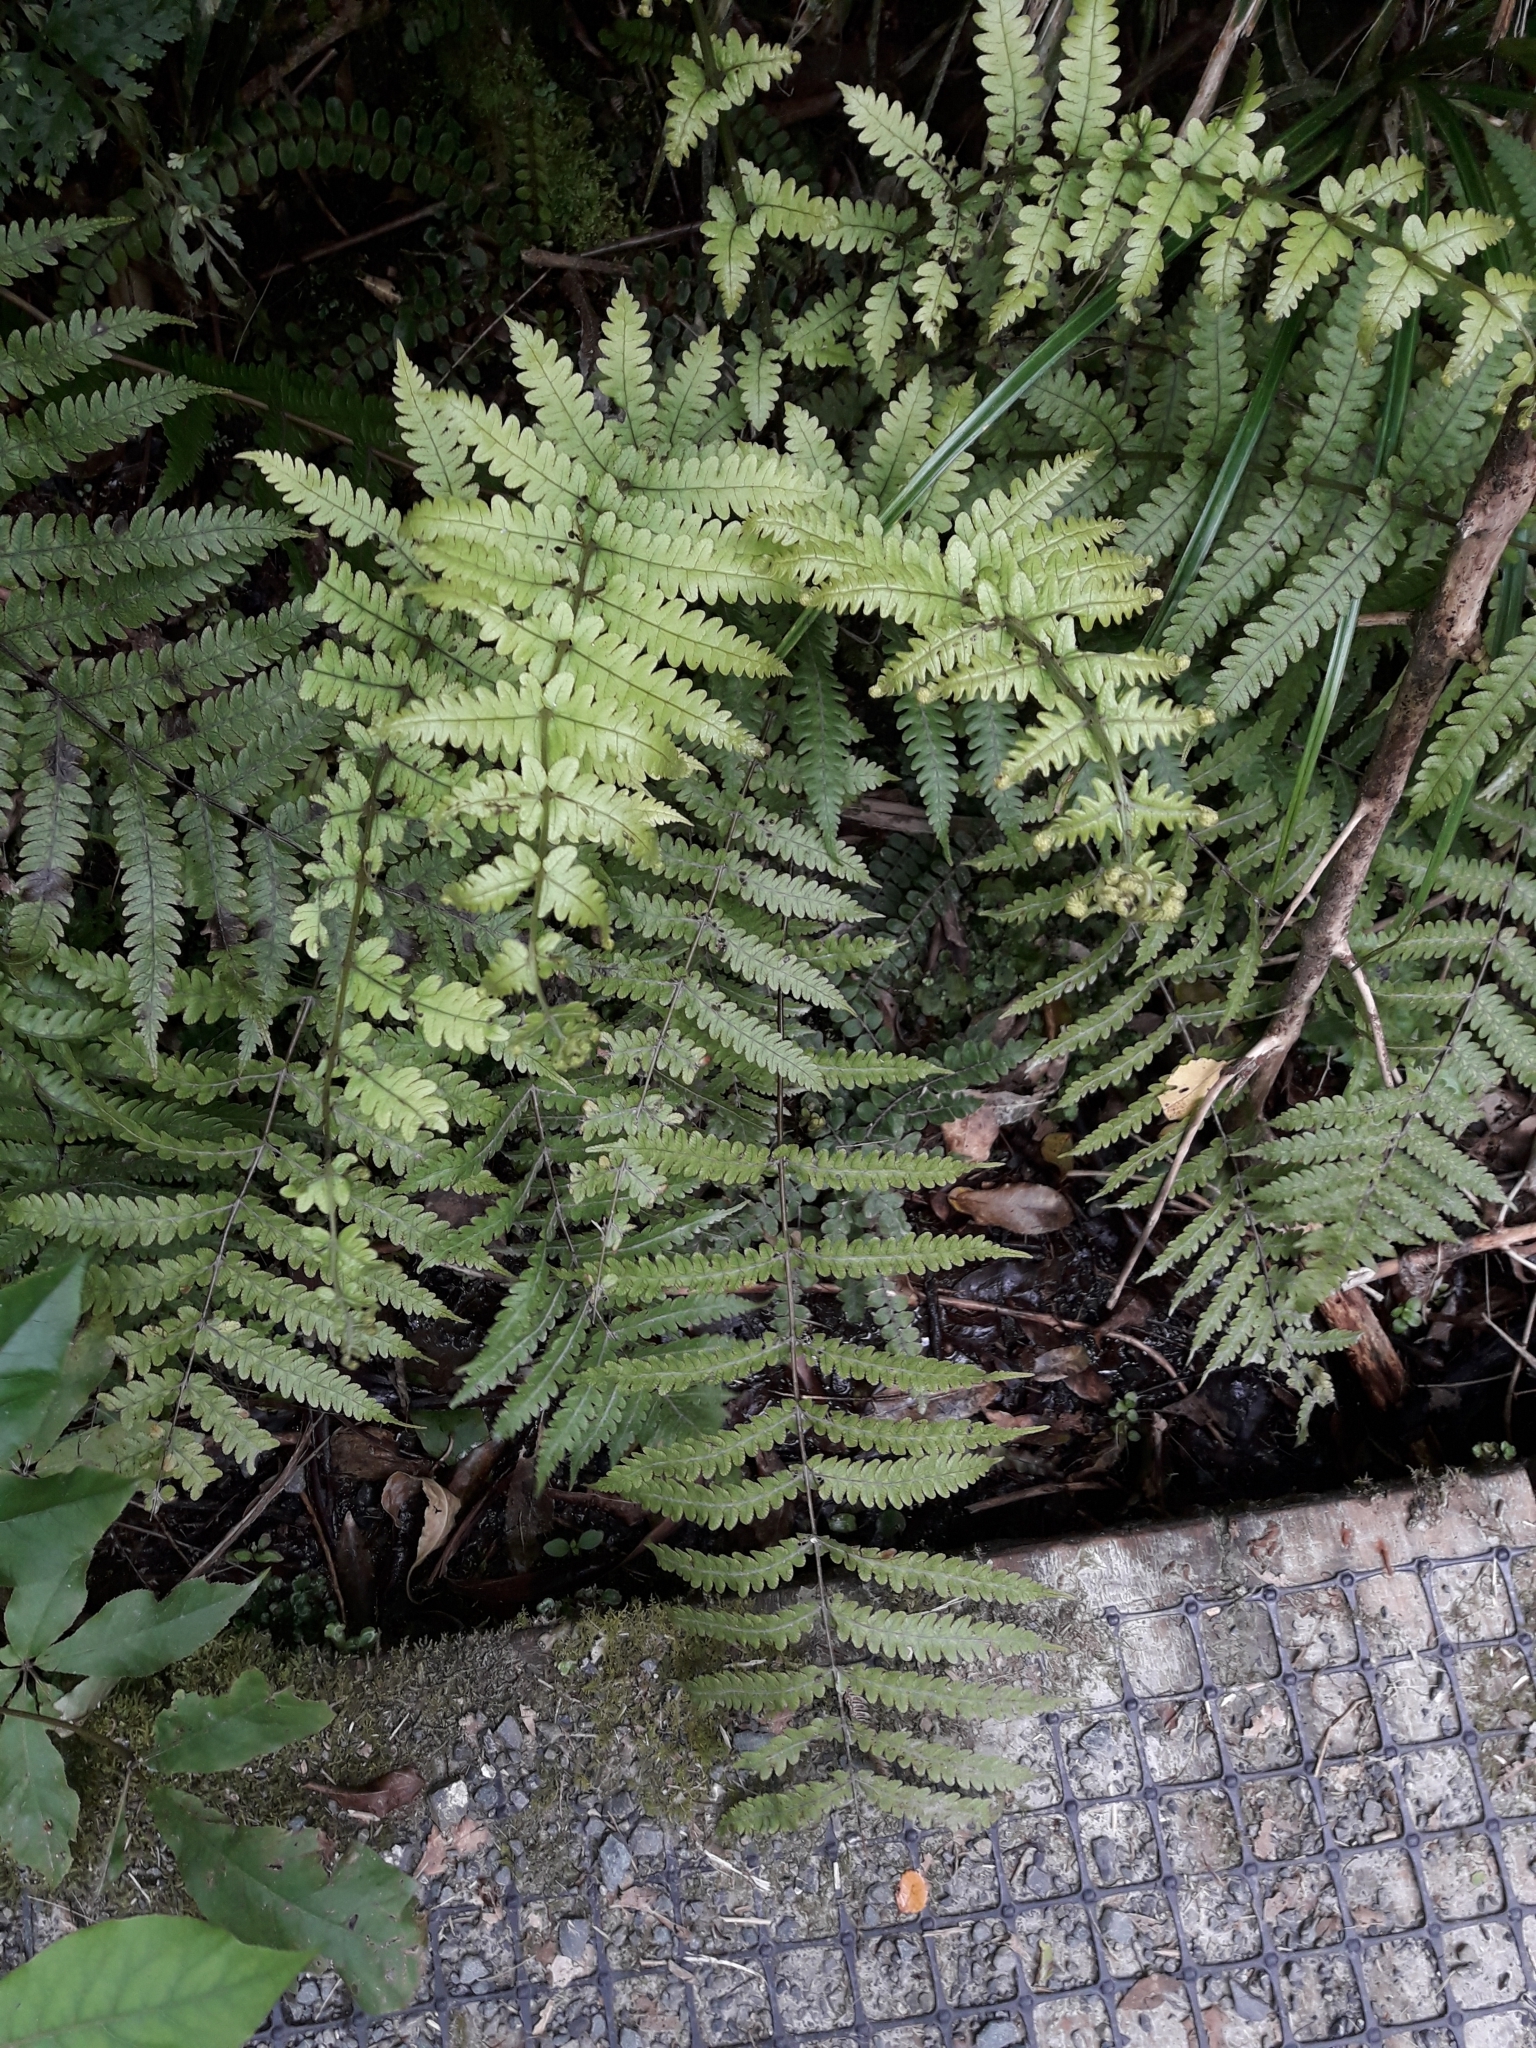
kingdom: Plantae
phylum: Tracheophyta
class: Polypodiopsida
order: Polypodiales
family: Thelypteridaceae
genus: Pakau
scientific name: Pakau pennigera
